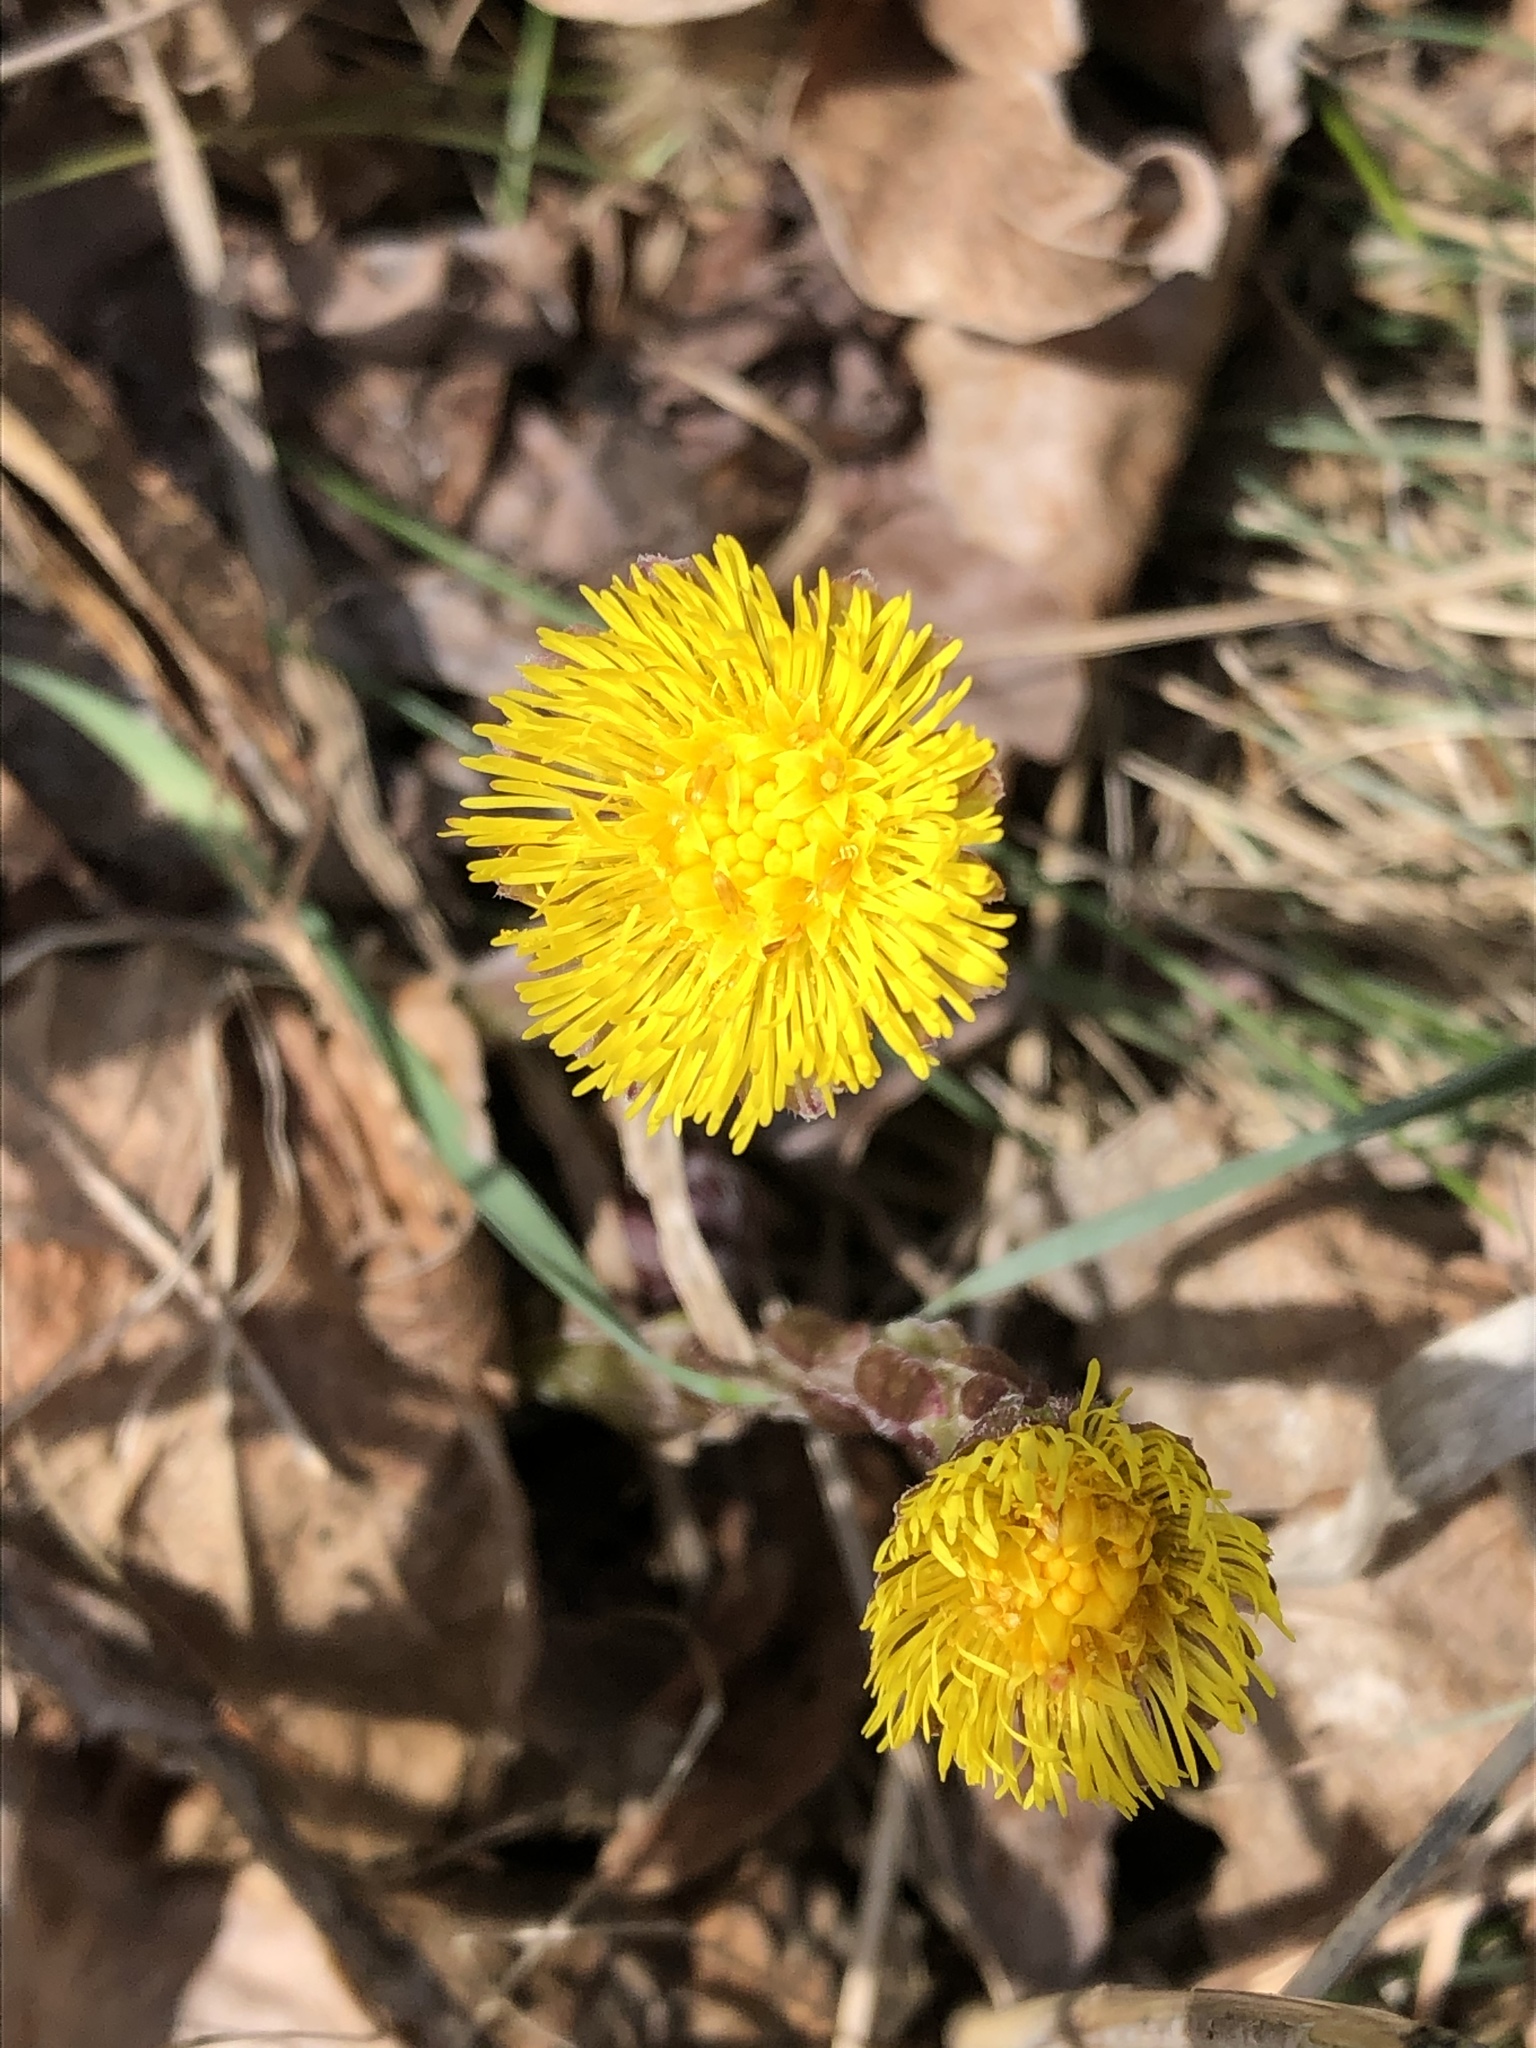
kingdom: Plantae
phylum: Tracheophyta
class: Magnoliopsida
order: Asterales
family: Asteraceae
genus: Tussilago
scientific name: Tussilago farfara
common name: Coltsfoot
